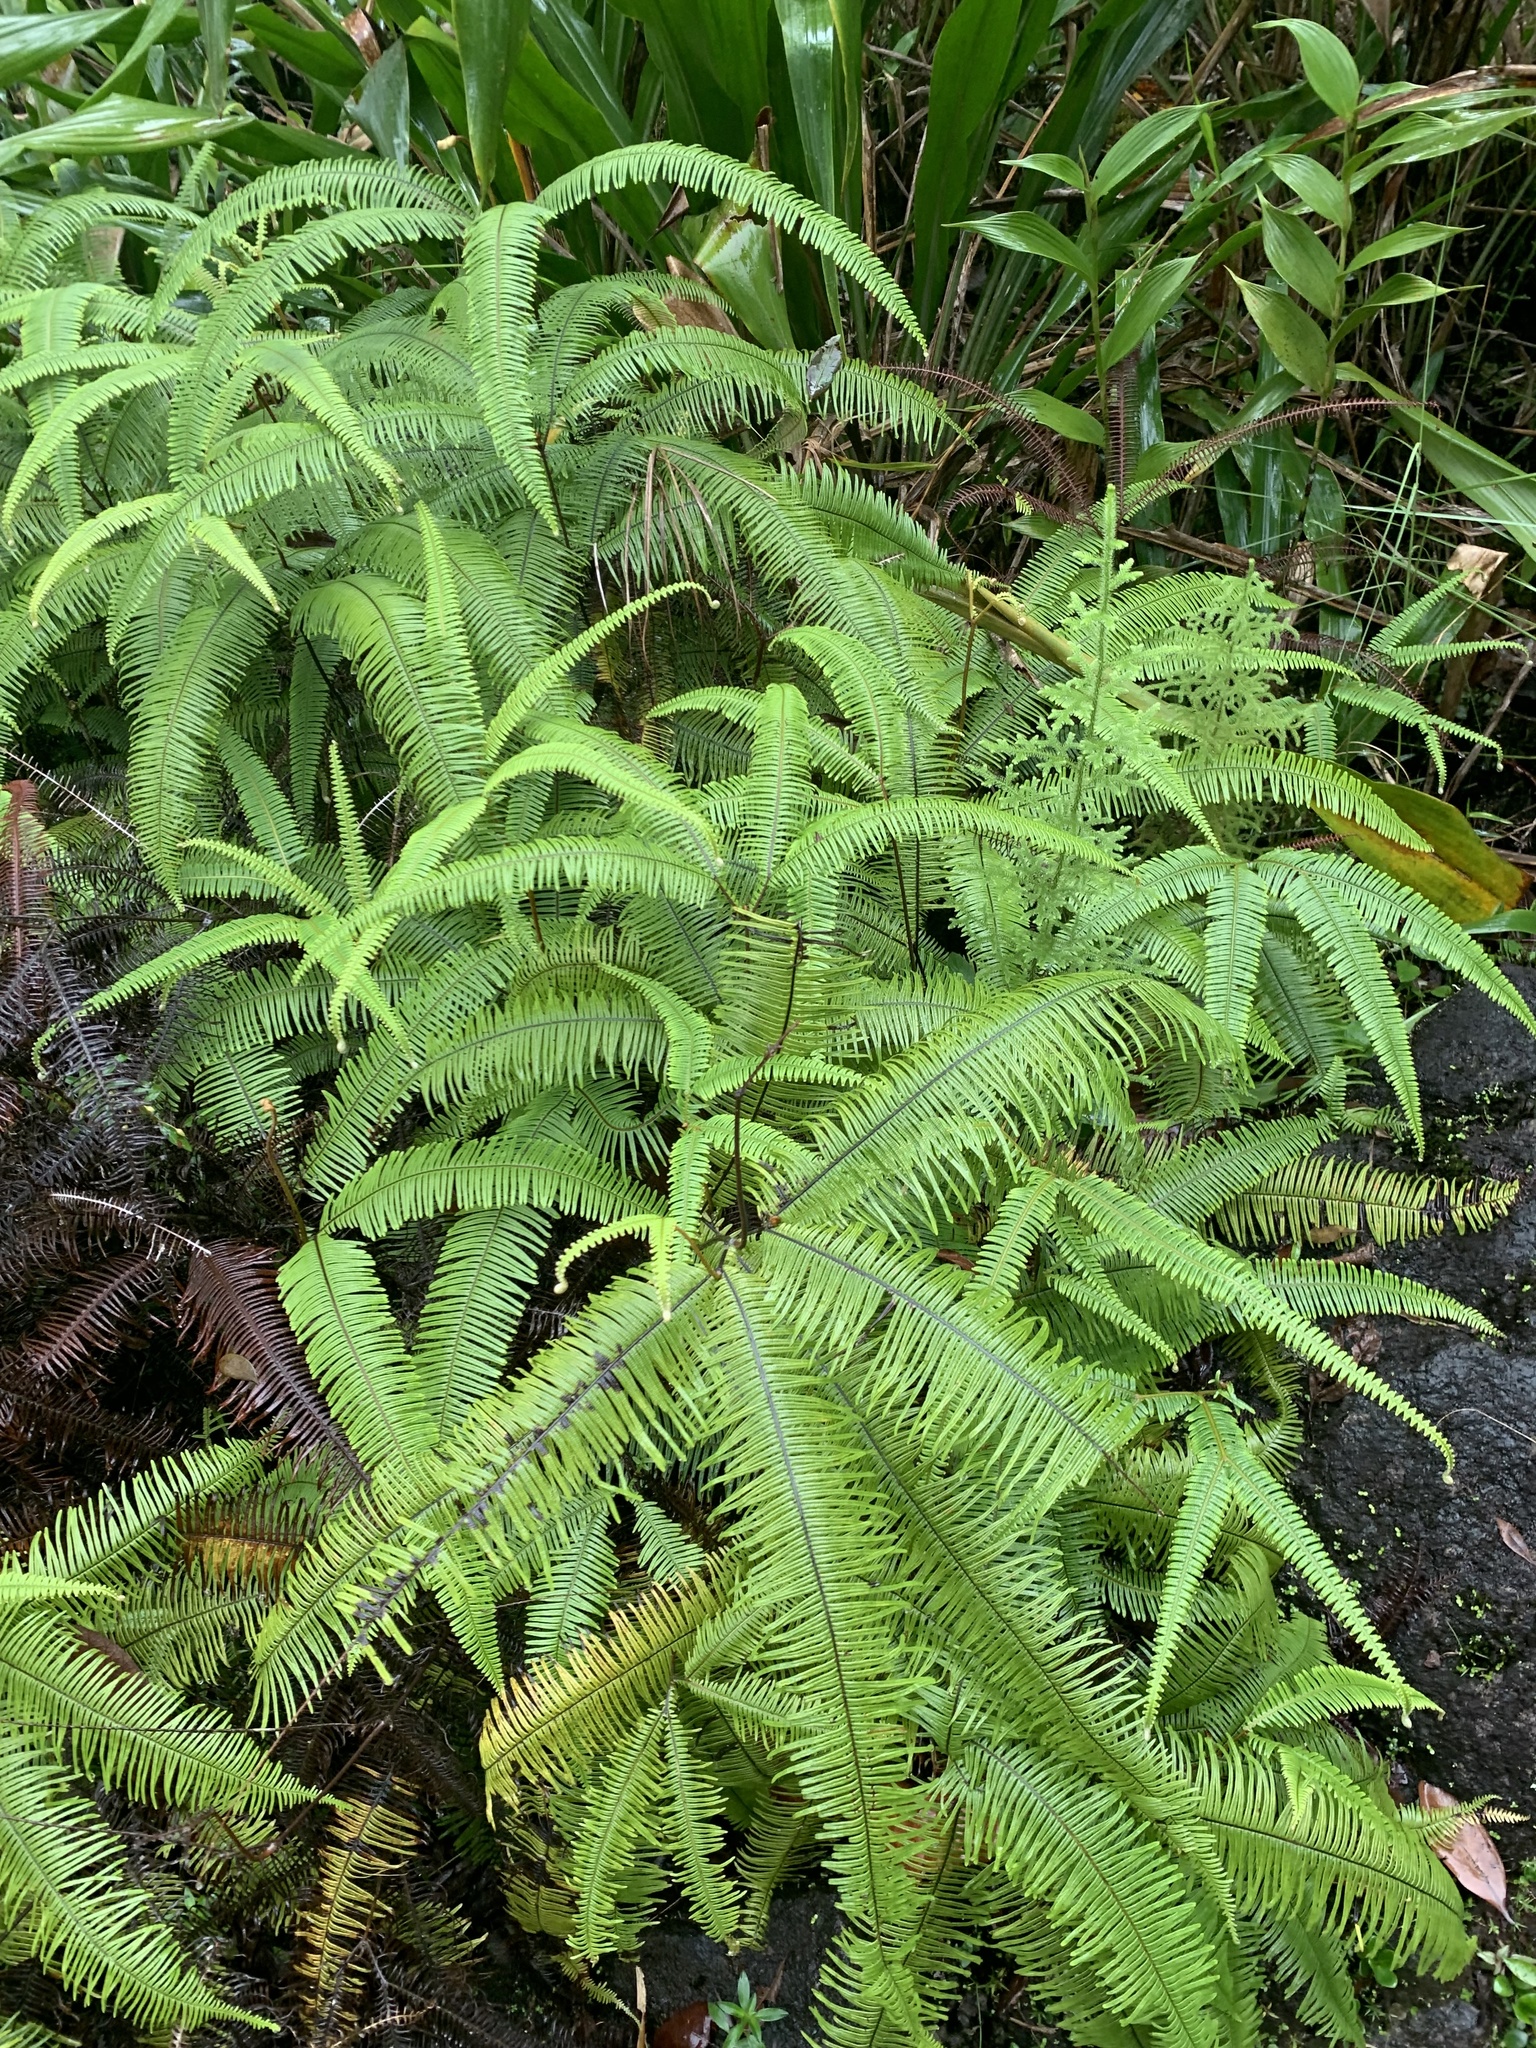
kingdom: Plantae
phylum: Tracheophyta
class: Polypodiopsida
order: Gleicheniales
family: Gleicheniaceae
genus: Sticherus
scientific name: Sticherus bifidus
